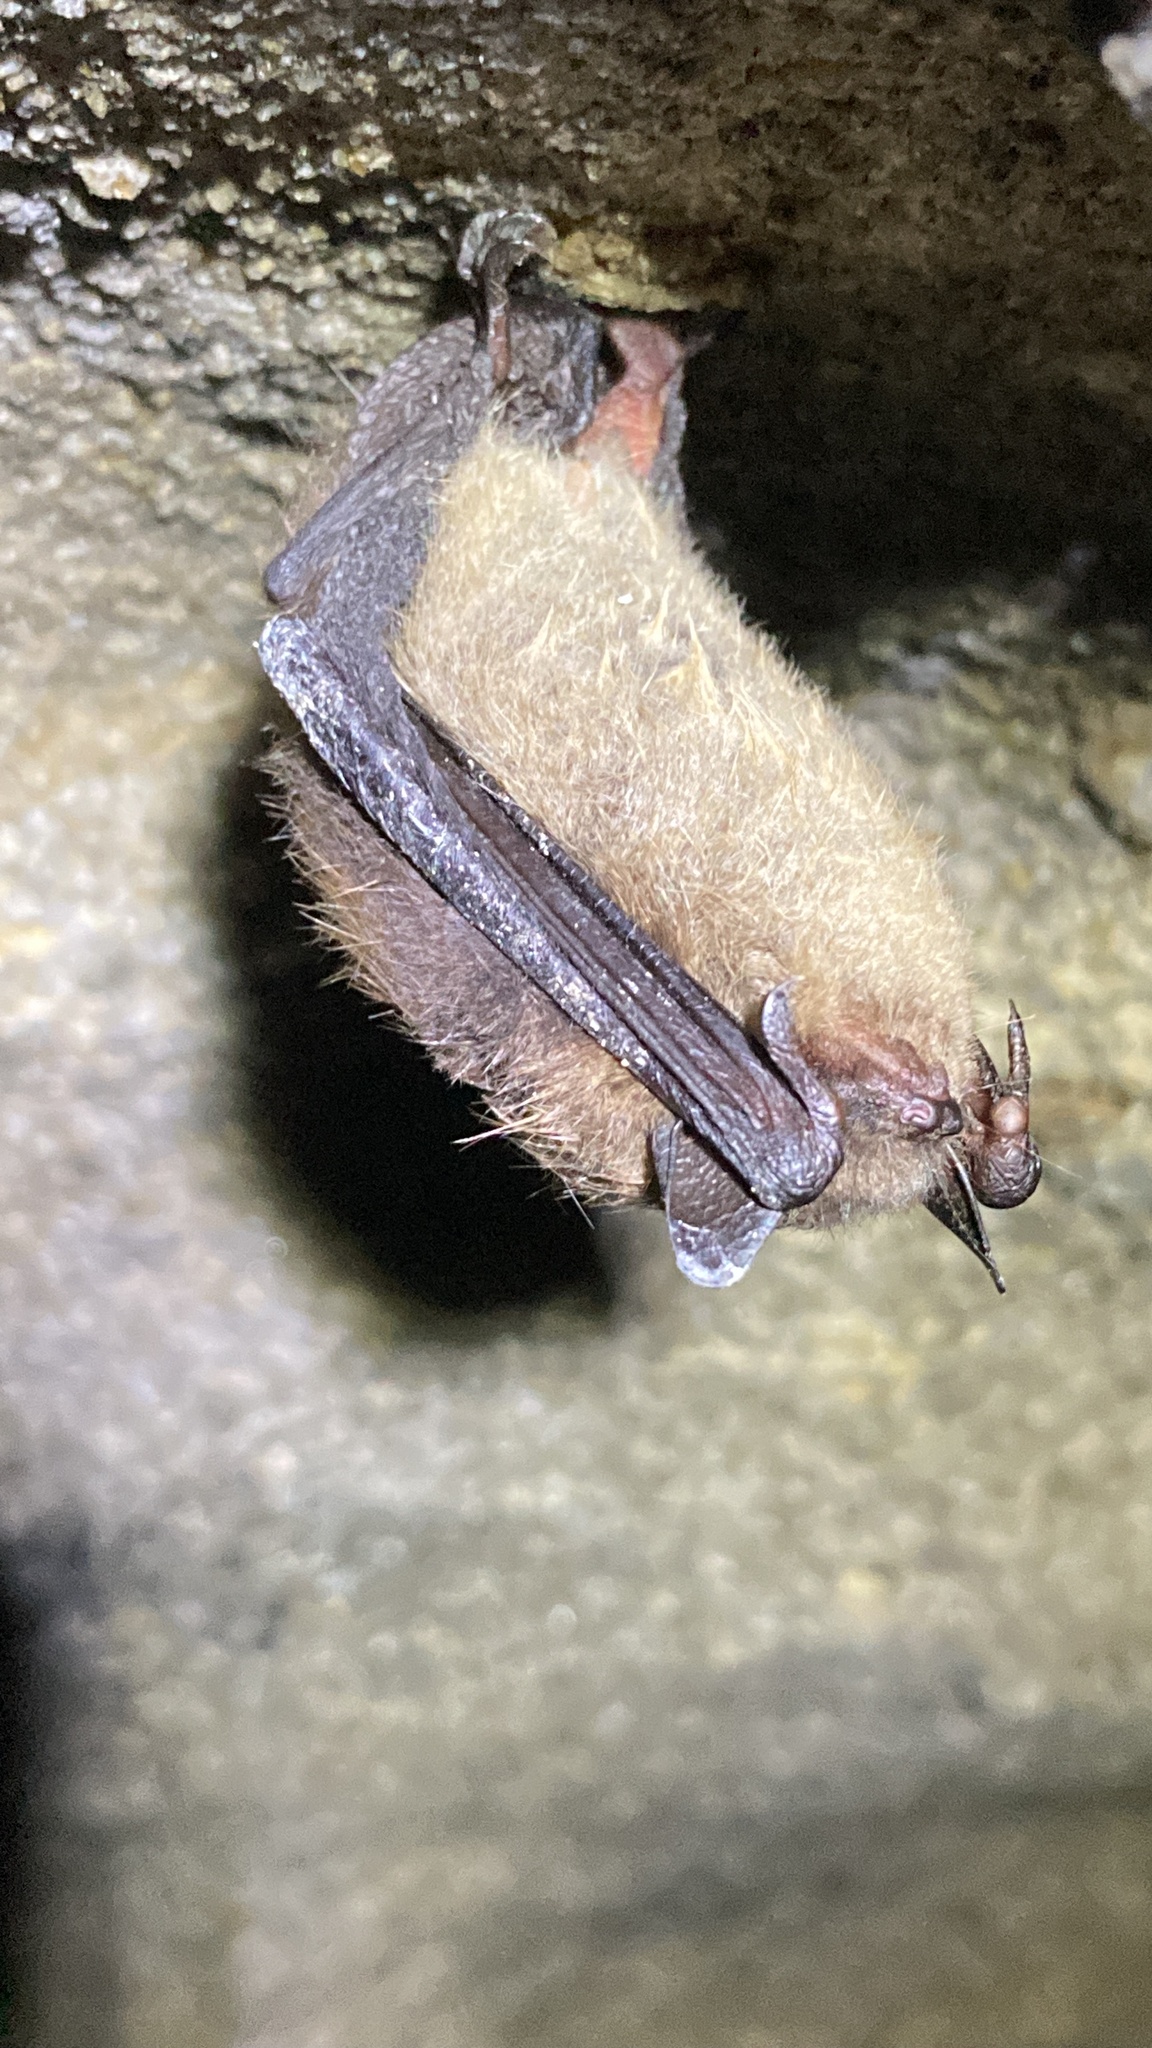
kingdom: Animalia
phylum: Chordata
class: Mammalia
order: Chiroptera
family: Vespertilionidae
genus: Myotis
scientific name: Myotis lucifugus
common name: Little brown bat
